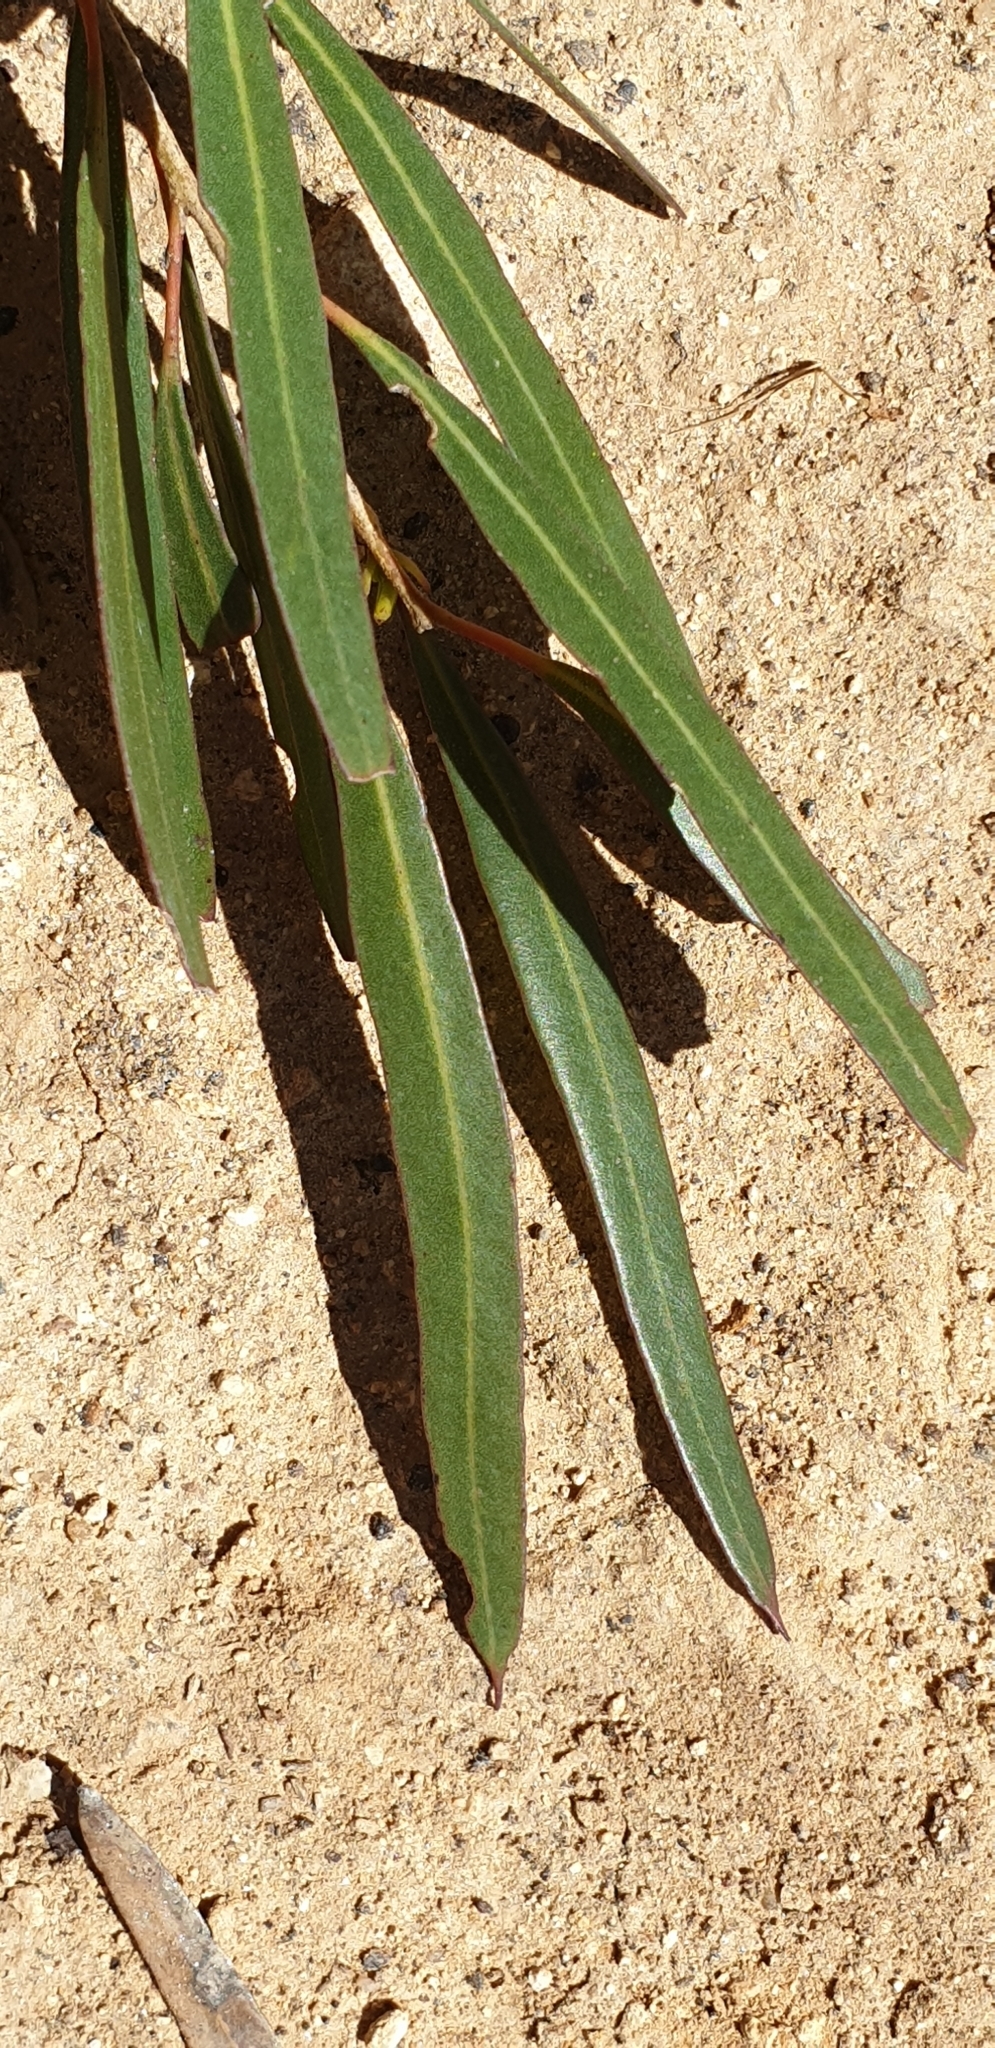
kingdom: Plantae
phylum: Tracheophyta
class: Magnoliopsida
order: Myrtales
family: Myrtaceae
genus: Eucalyptus
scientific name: Eucalyptus cneorifolia
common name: Narrow-leaf mallee
